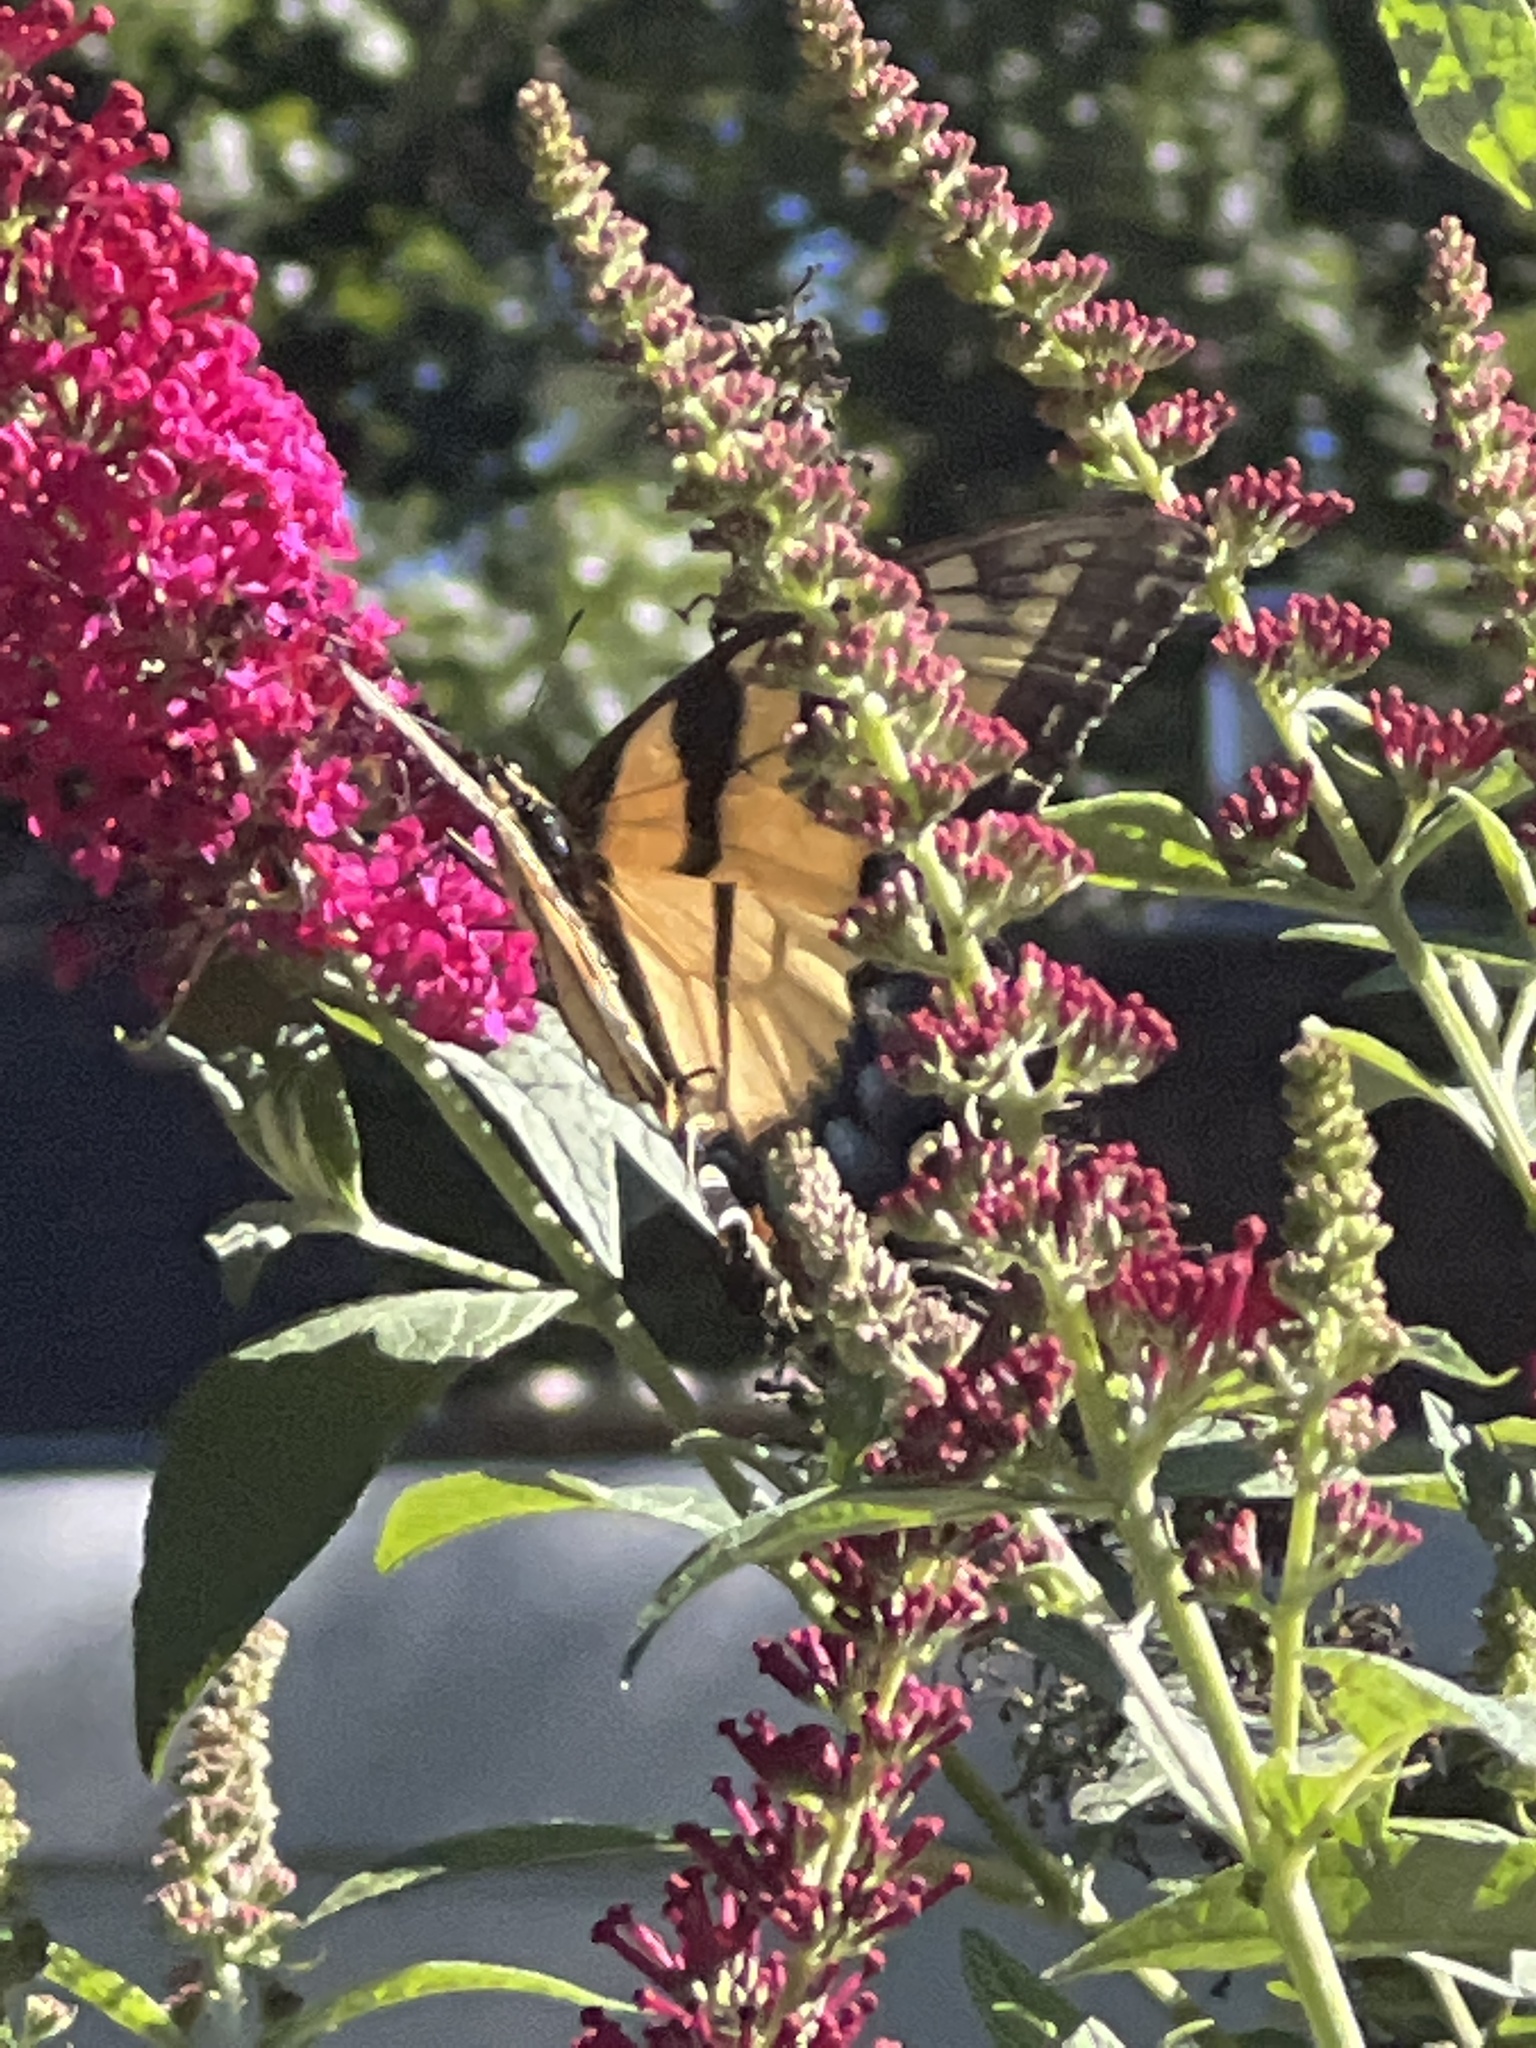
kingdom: Animalia
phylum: Arthropoda
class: Insecta
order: Lepidoptera
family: Papilionidae
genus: Papilio
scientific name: Papilio glaucus
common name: Tiger swallowtail
